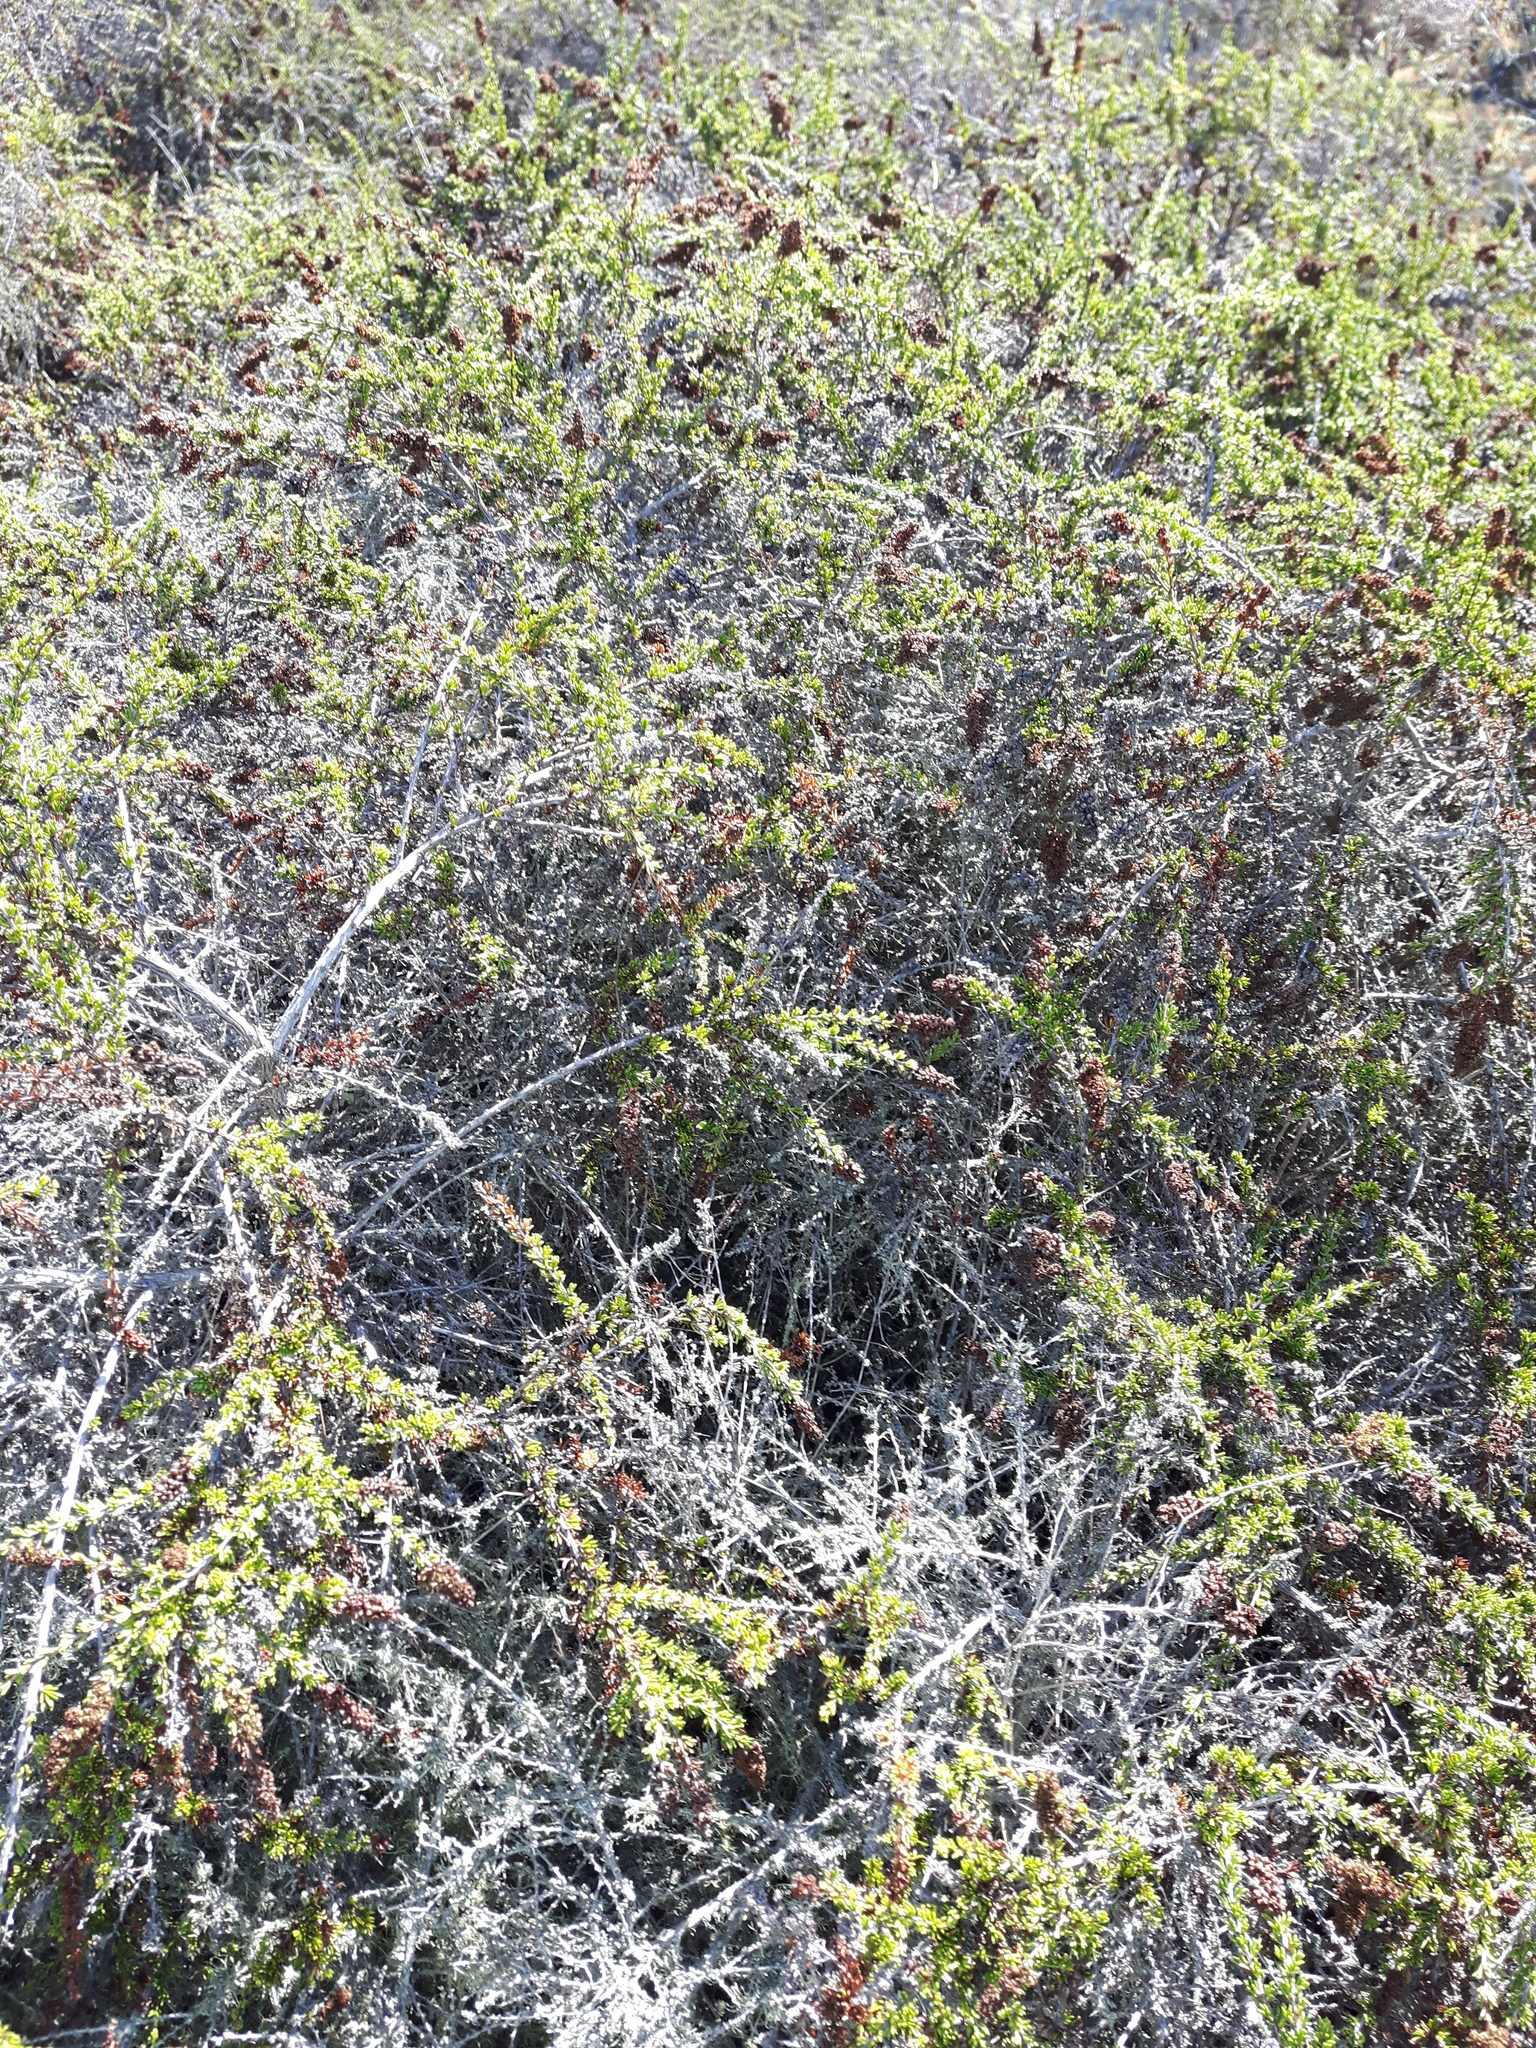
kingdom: Plantae
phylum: Tracheophyta
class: Magnoliopsida
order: Rosales
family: Rosaceae
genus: Adenostoma
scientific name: Adenostoma fasciculatum
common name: Chamise
